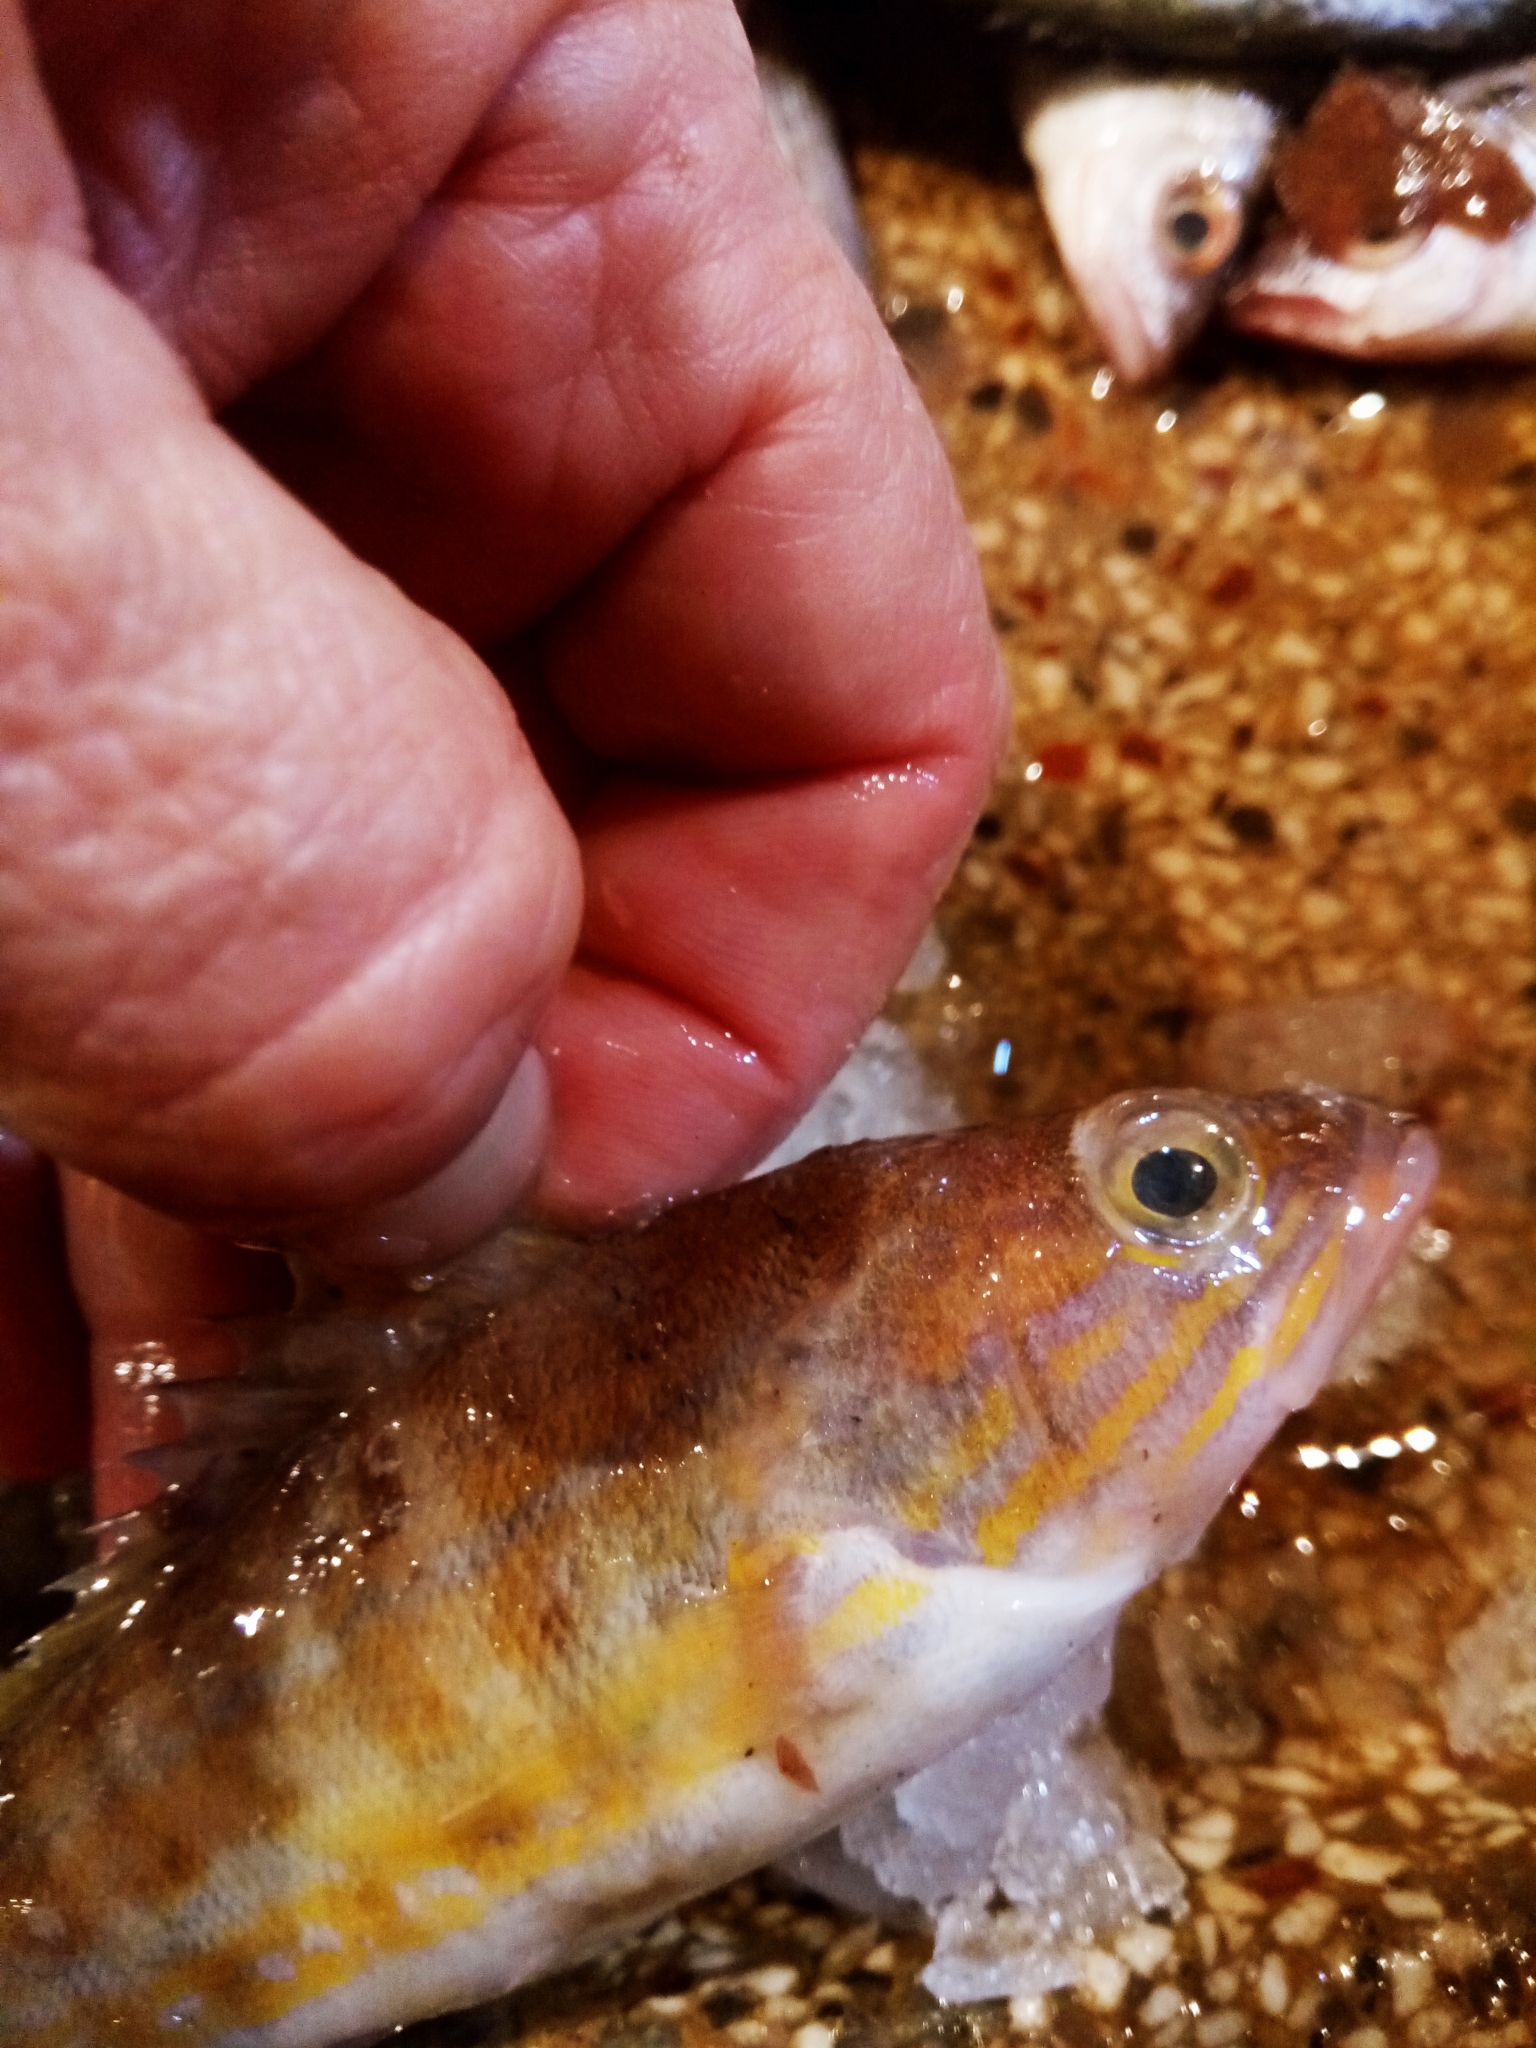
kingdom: Animalia
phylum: Chordata
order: Perciformes
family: Serranidae
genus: Serranus
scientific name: Serranus cabrilla
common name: Comber
